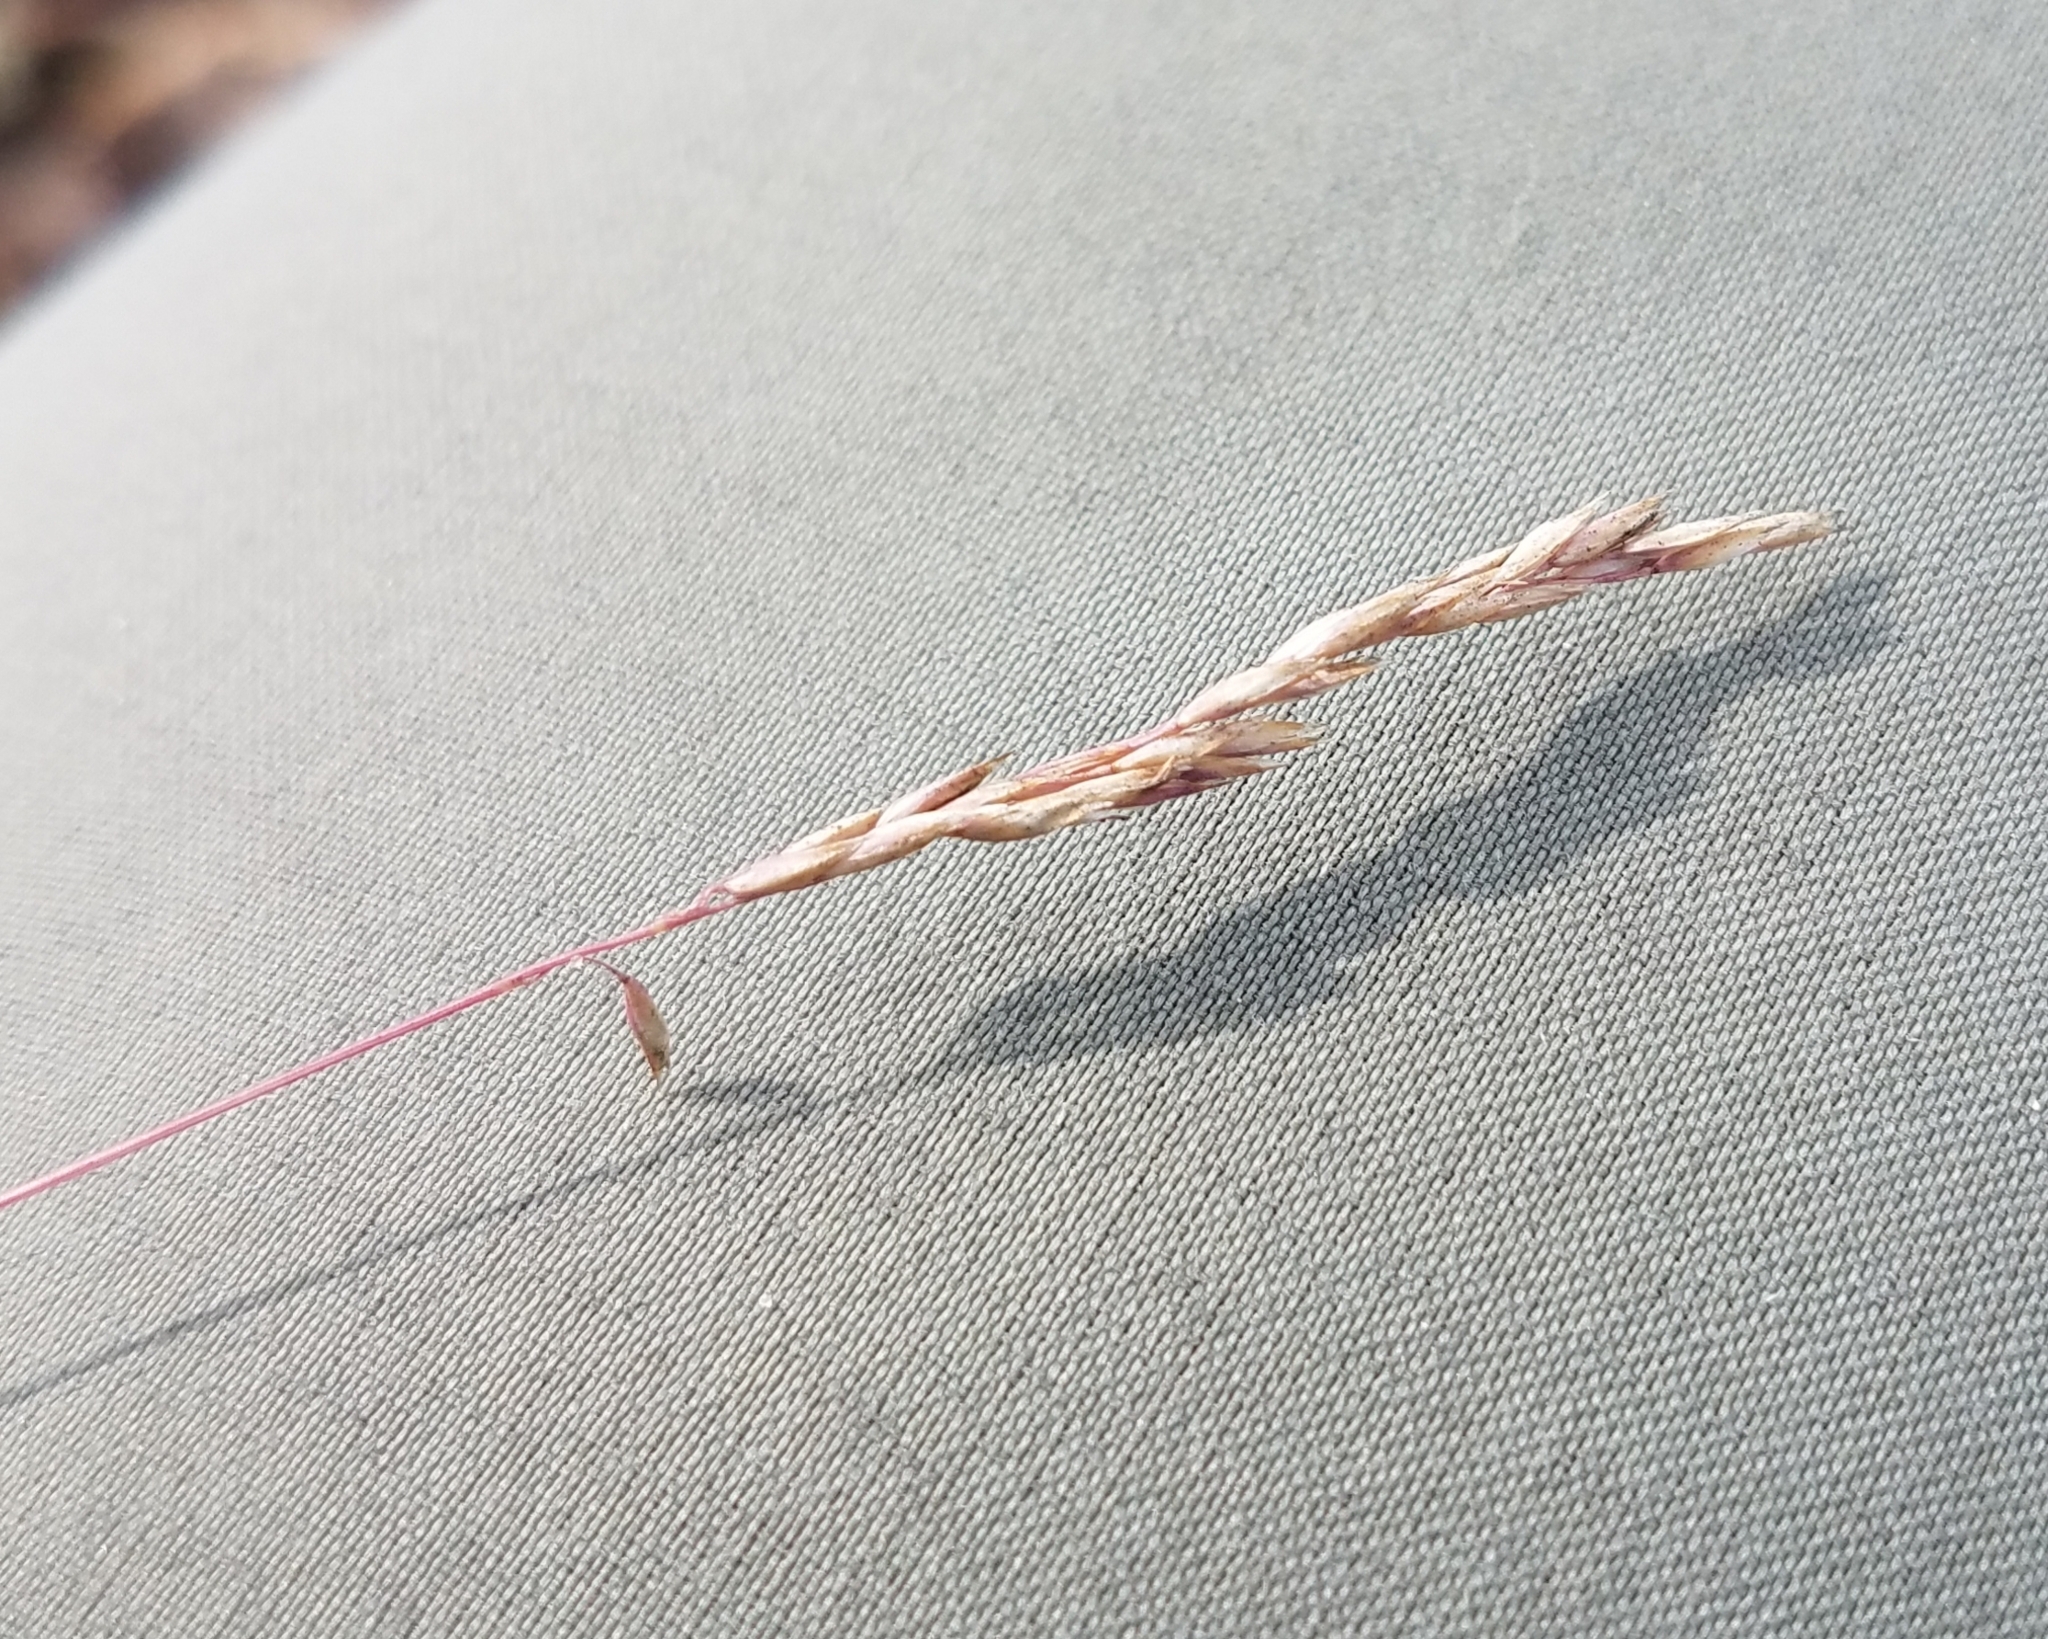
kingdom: Plantae
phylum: Tracheophyta
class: Liliopsida
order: Poales
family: Poaceae
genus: Corynephorus
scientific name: Corynephorus canescens
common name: Grey hair-grass
